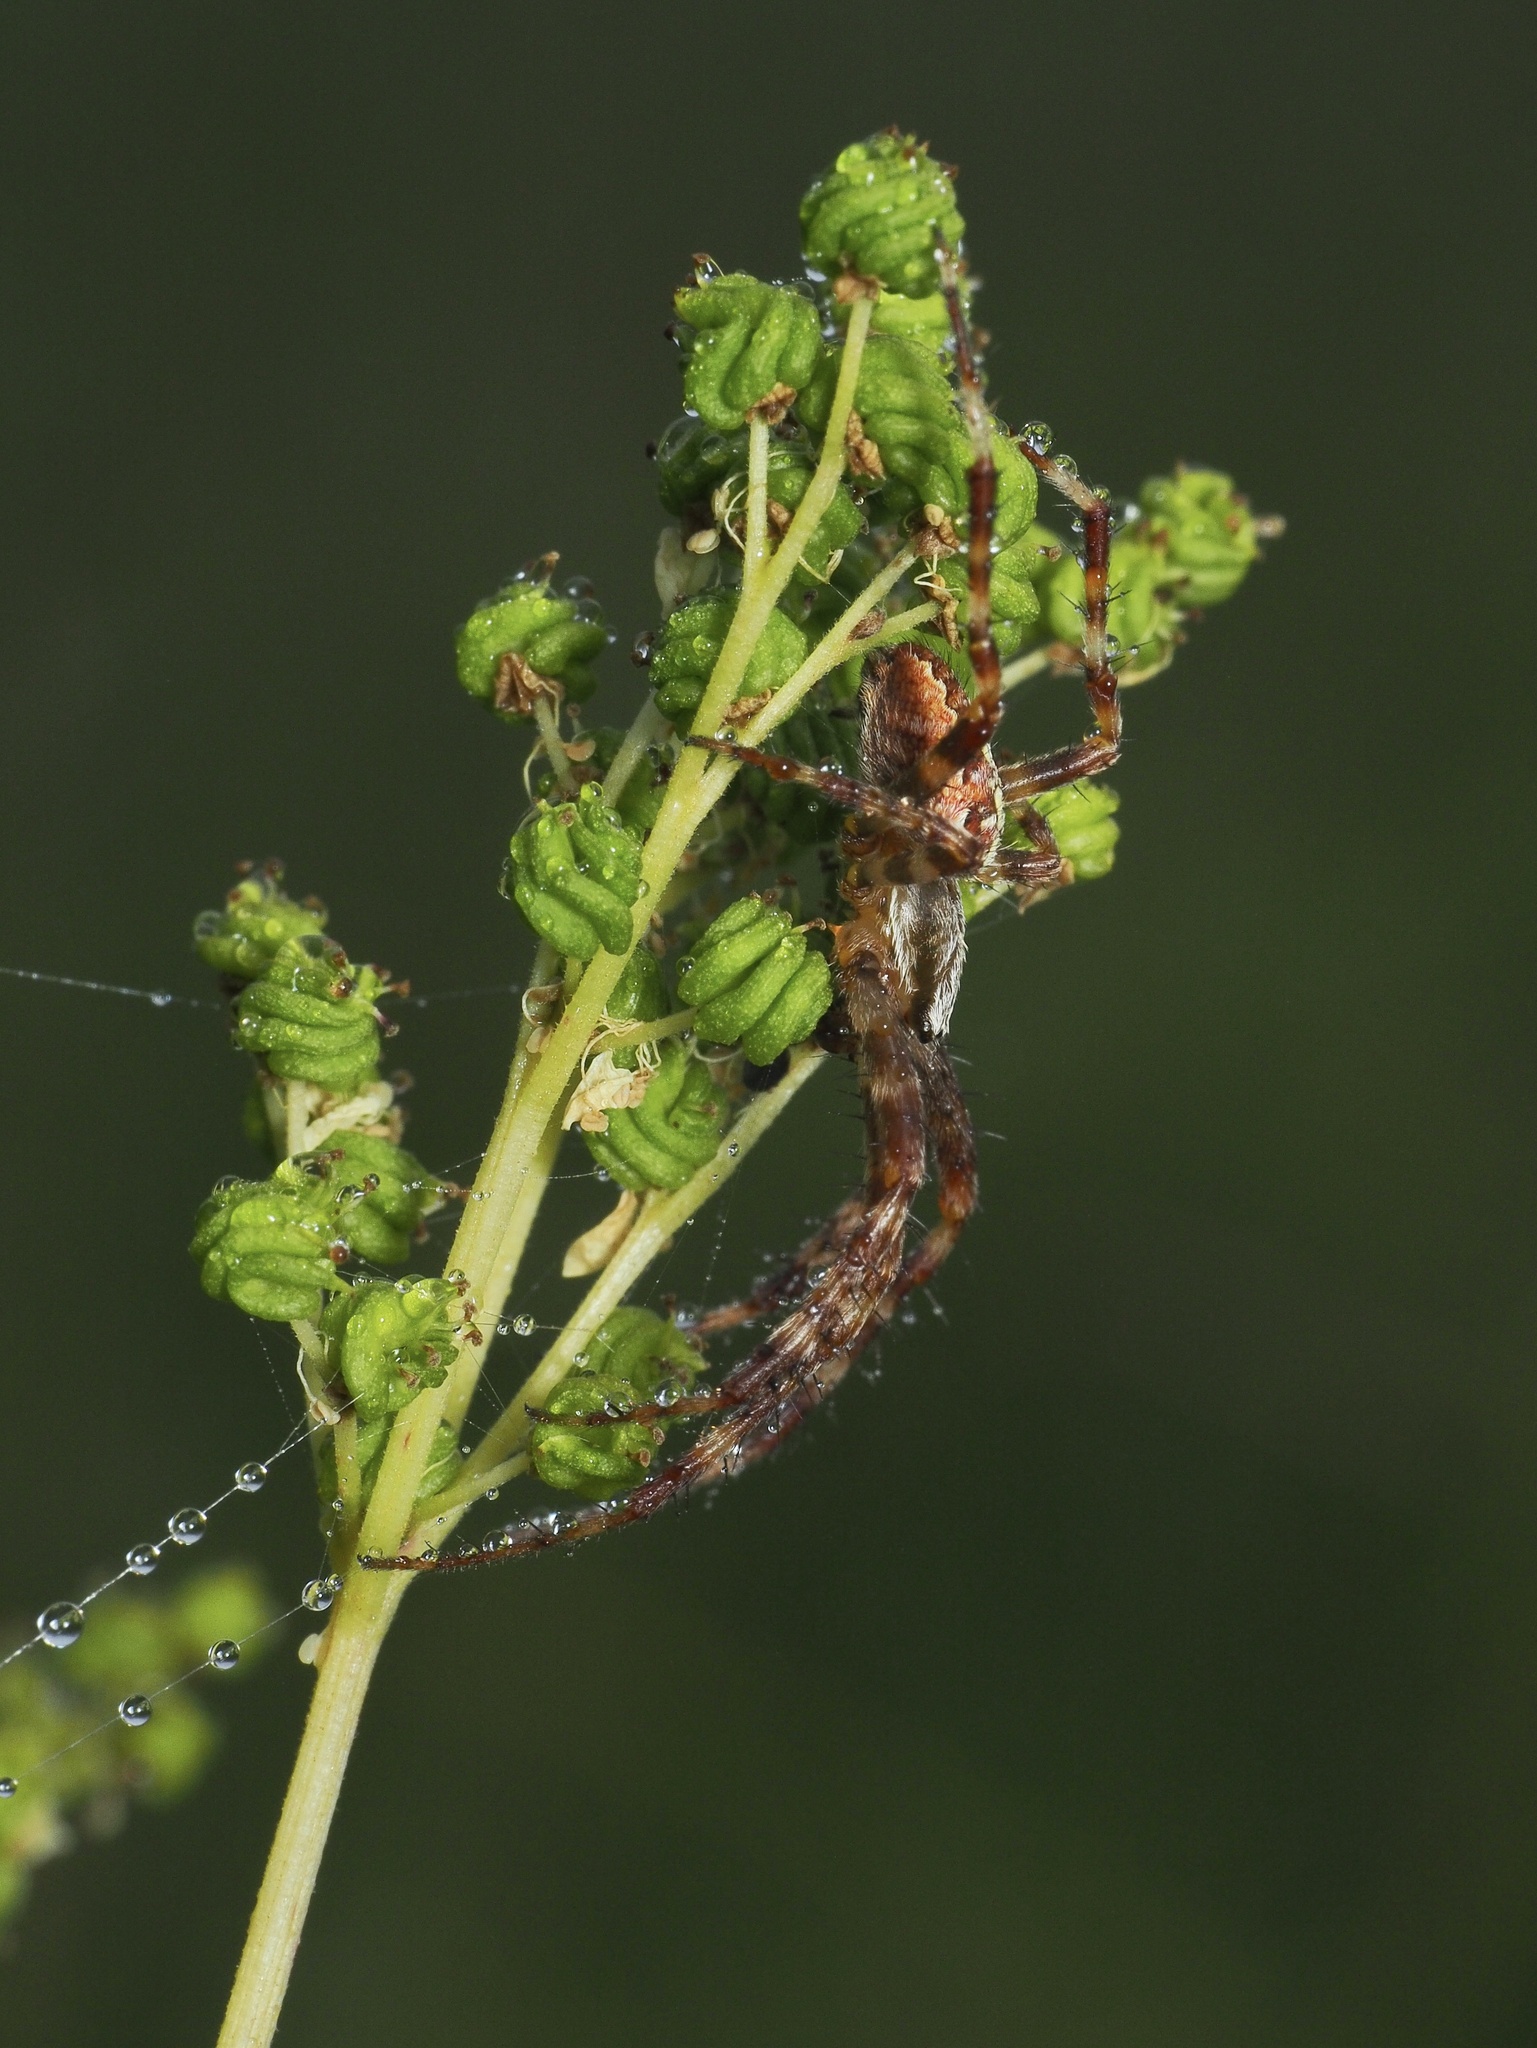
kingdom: Animalia
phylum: Arthropoda
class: Arachnida
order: Araneae
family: Araneidae
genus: Araneus
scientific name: Araneus diadematus
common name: Cross orbweaver
